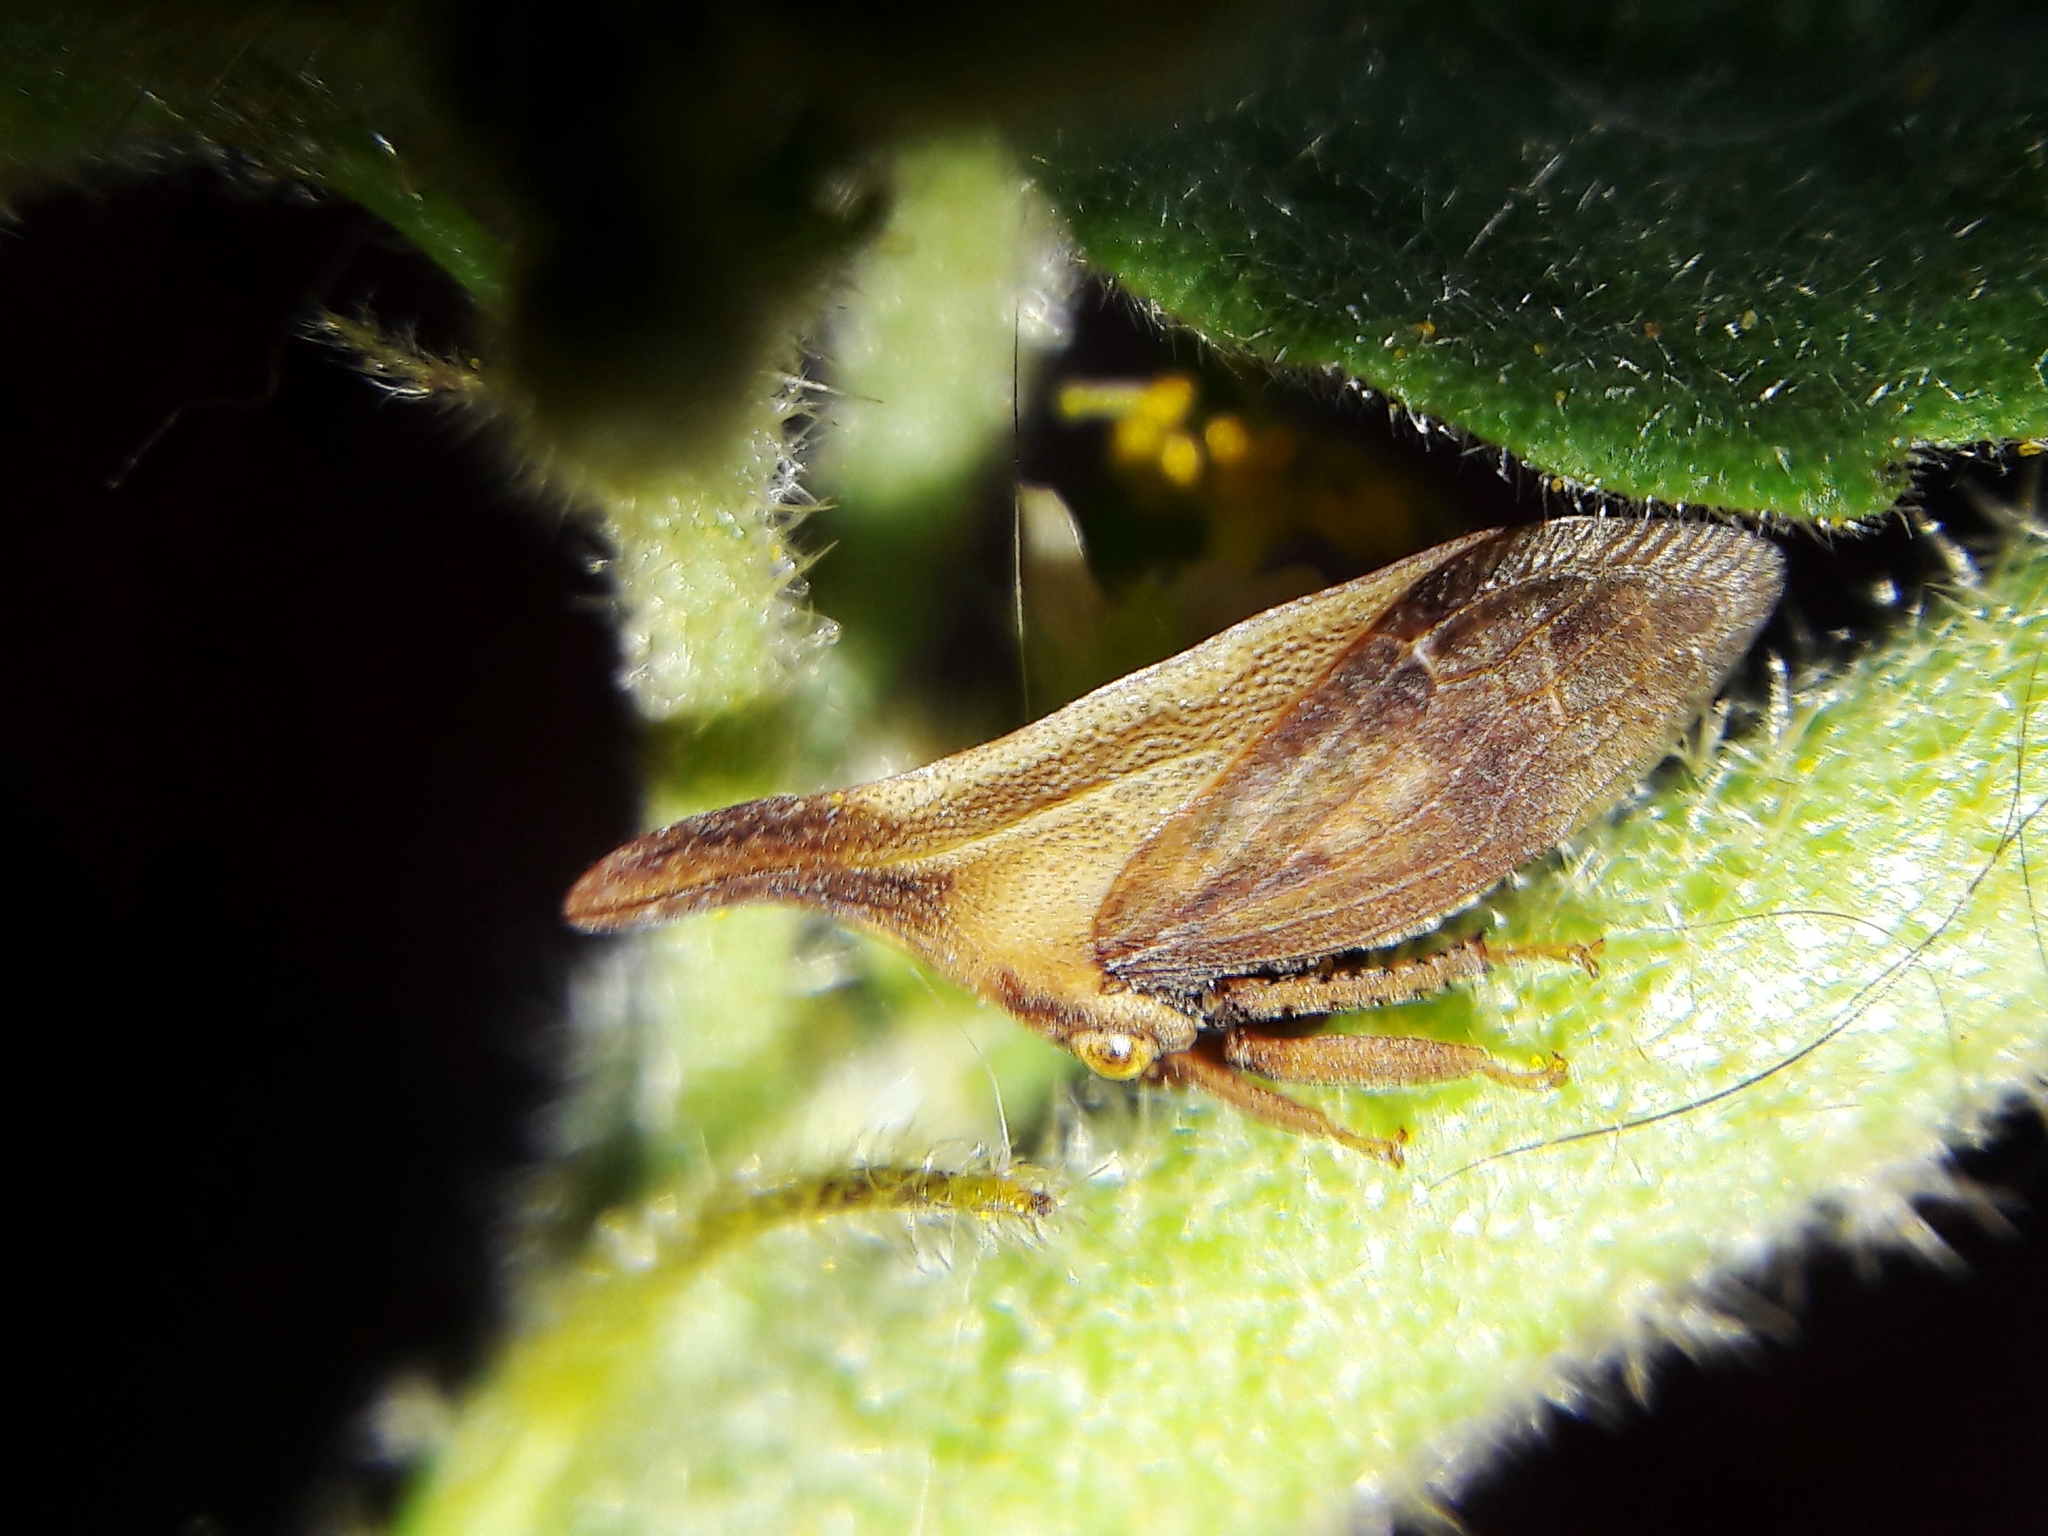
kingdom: Animalia
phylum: Arthropoda
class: Insecta
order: Hemiptera
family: Membracidae
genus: Enchenopa
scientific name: Enchenopa gracilis
